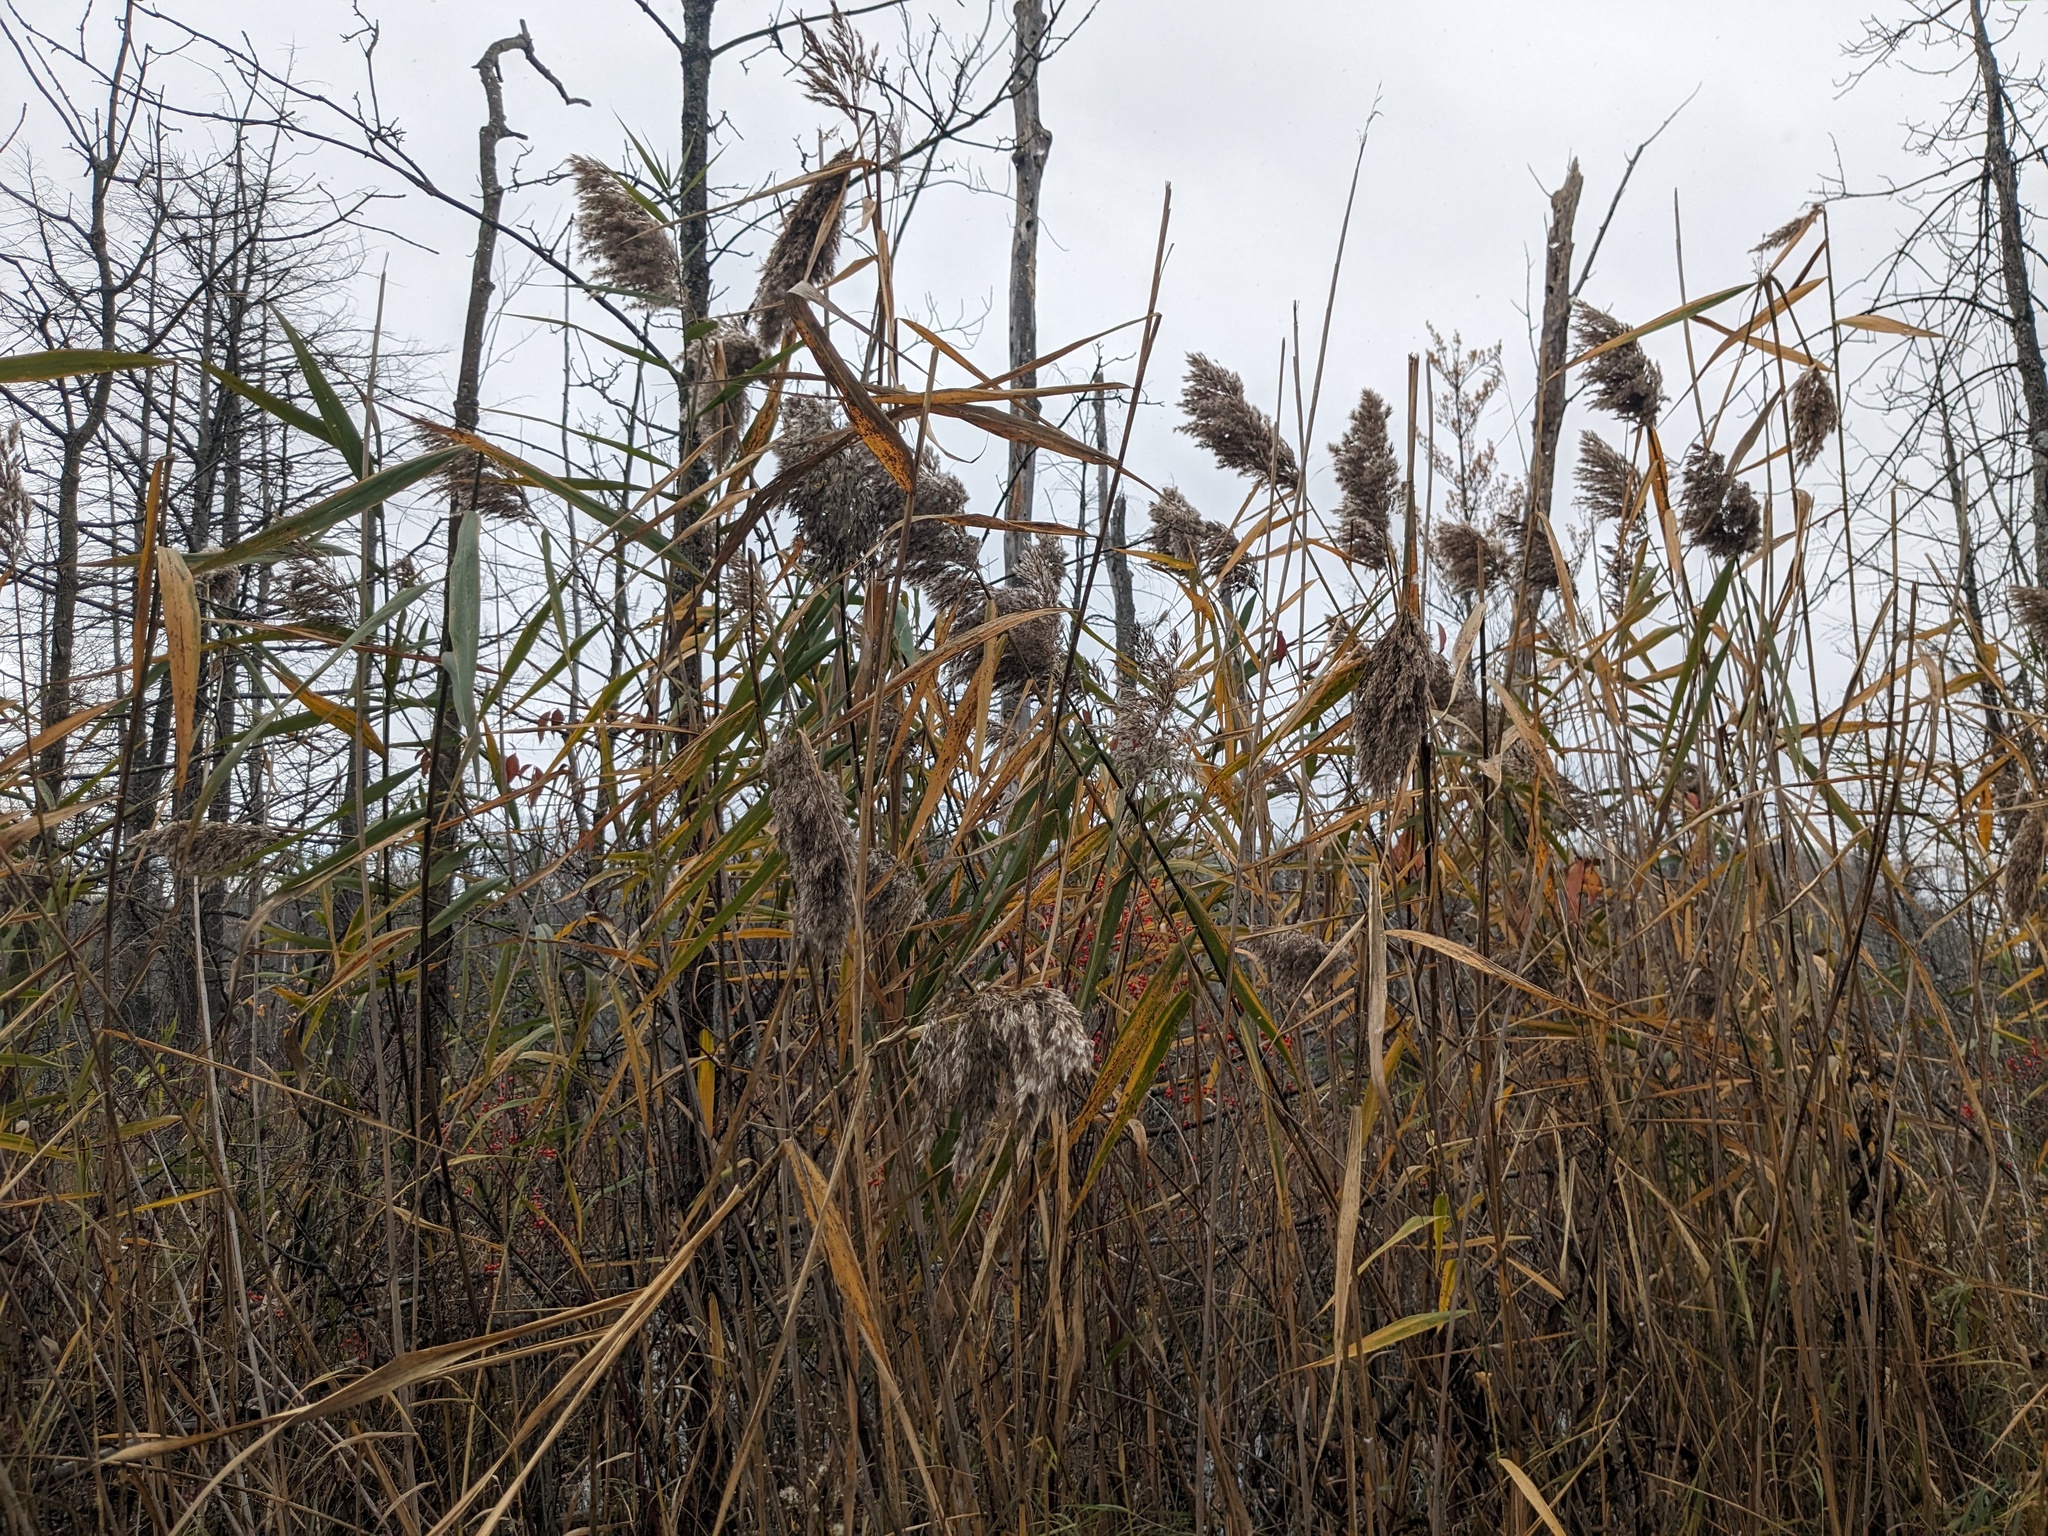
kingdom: Plantae
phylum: Tracheophyta
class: Liliopsida
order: Poales
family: Poaceae
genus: Phragmites
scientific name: Phragmites australis
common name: Common reed
